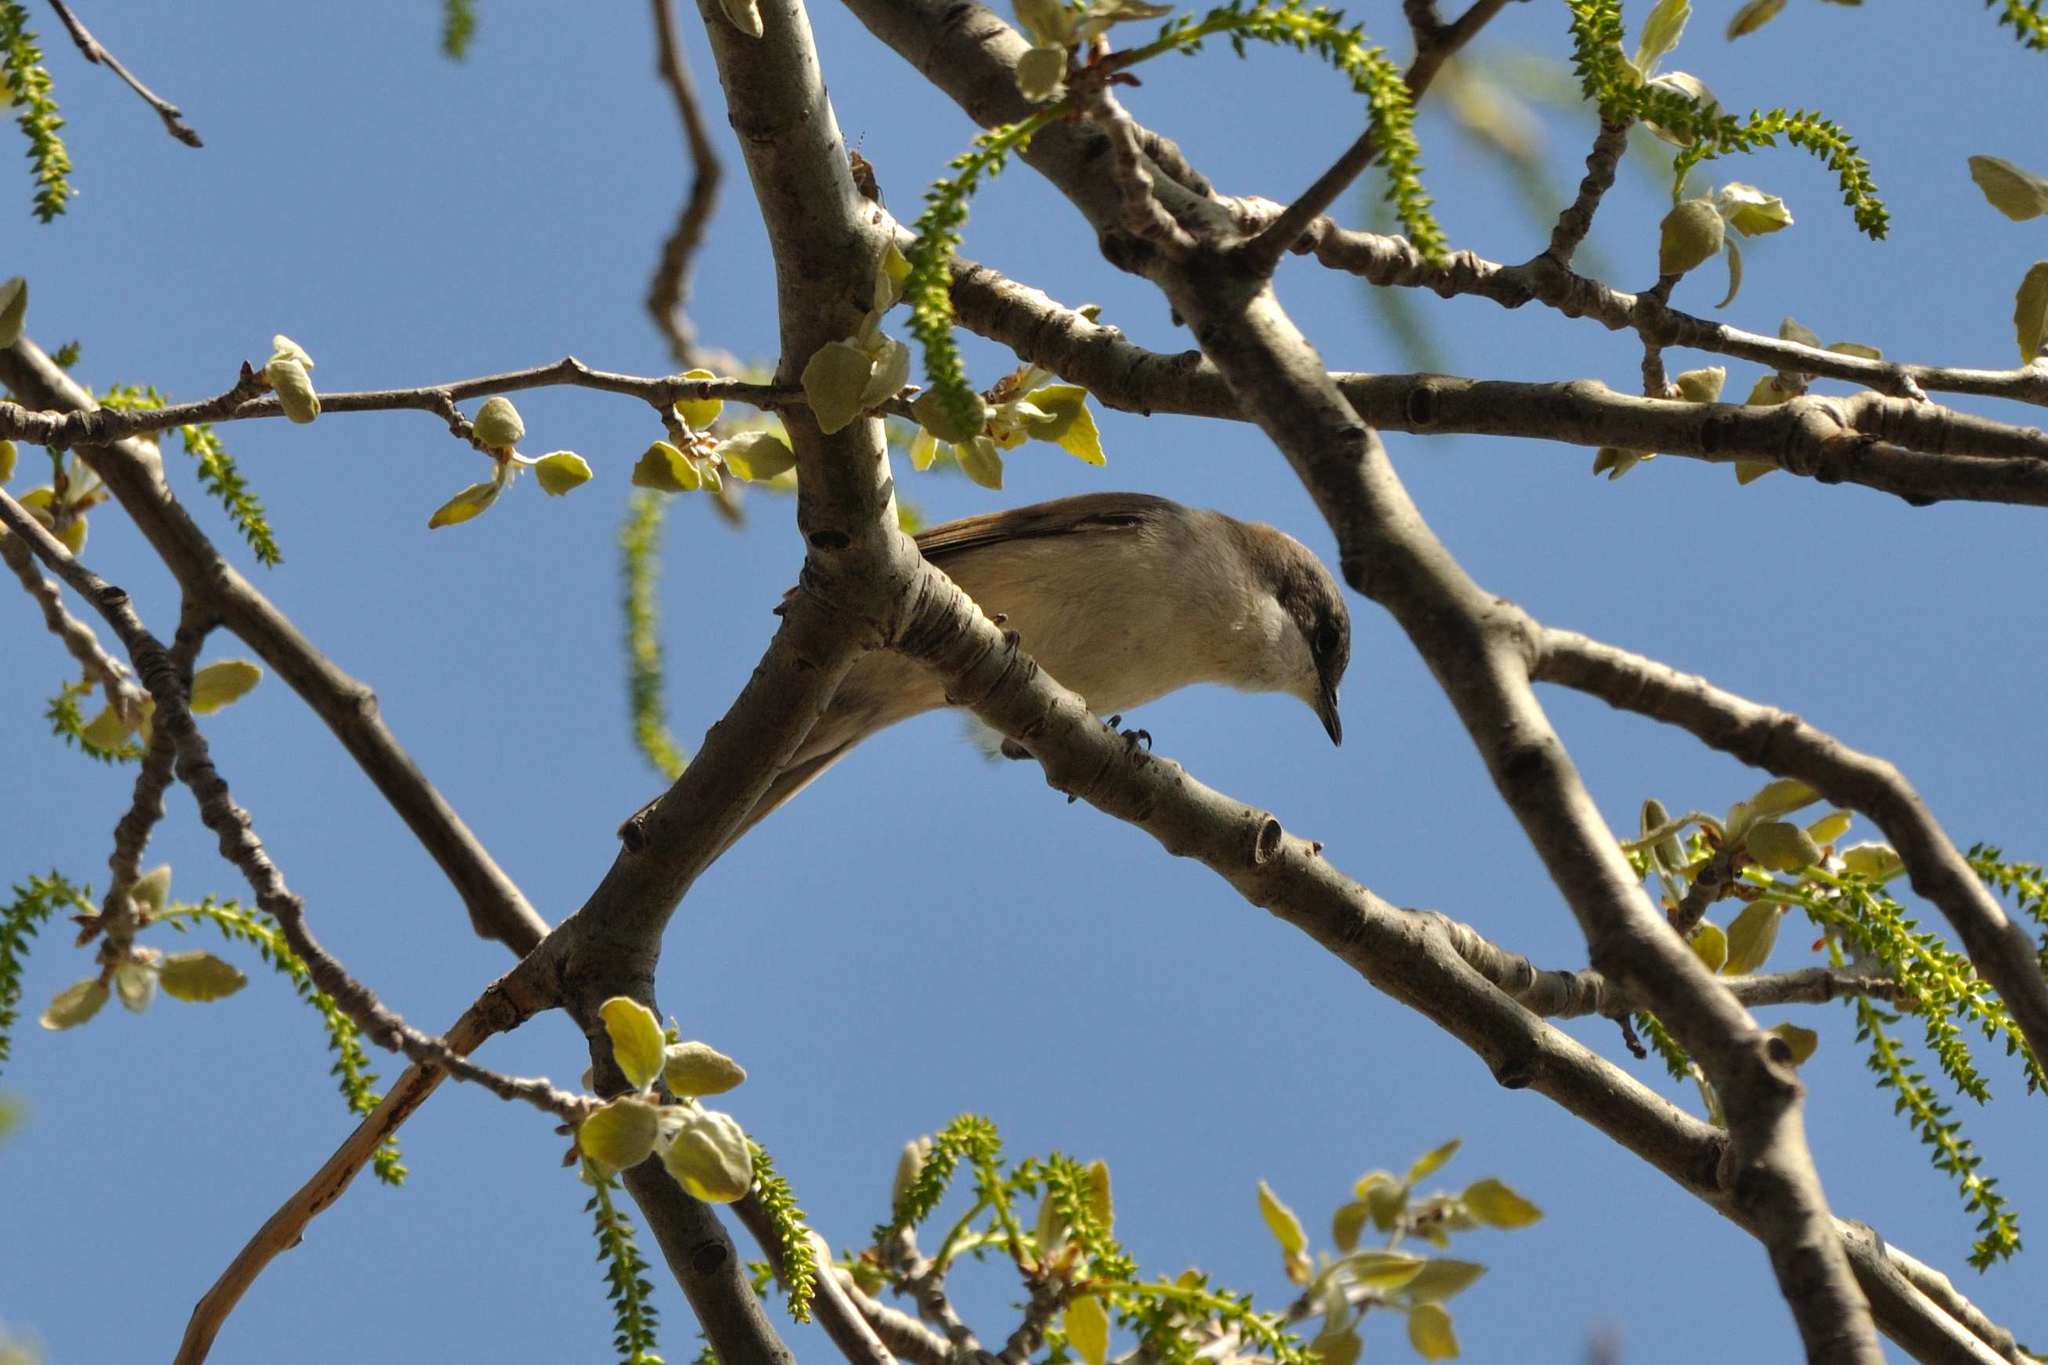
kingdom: Animalia
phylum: Chordata
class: Aves
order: Passeriformes
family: Sylviidae
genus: Sylvia
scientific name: Sylvia curruca
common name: Lesser whitethroat
